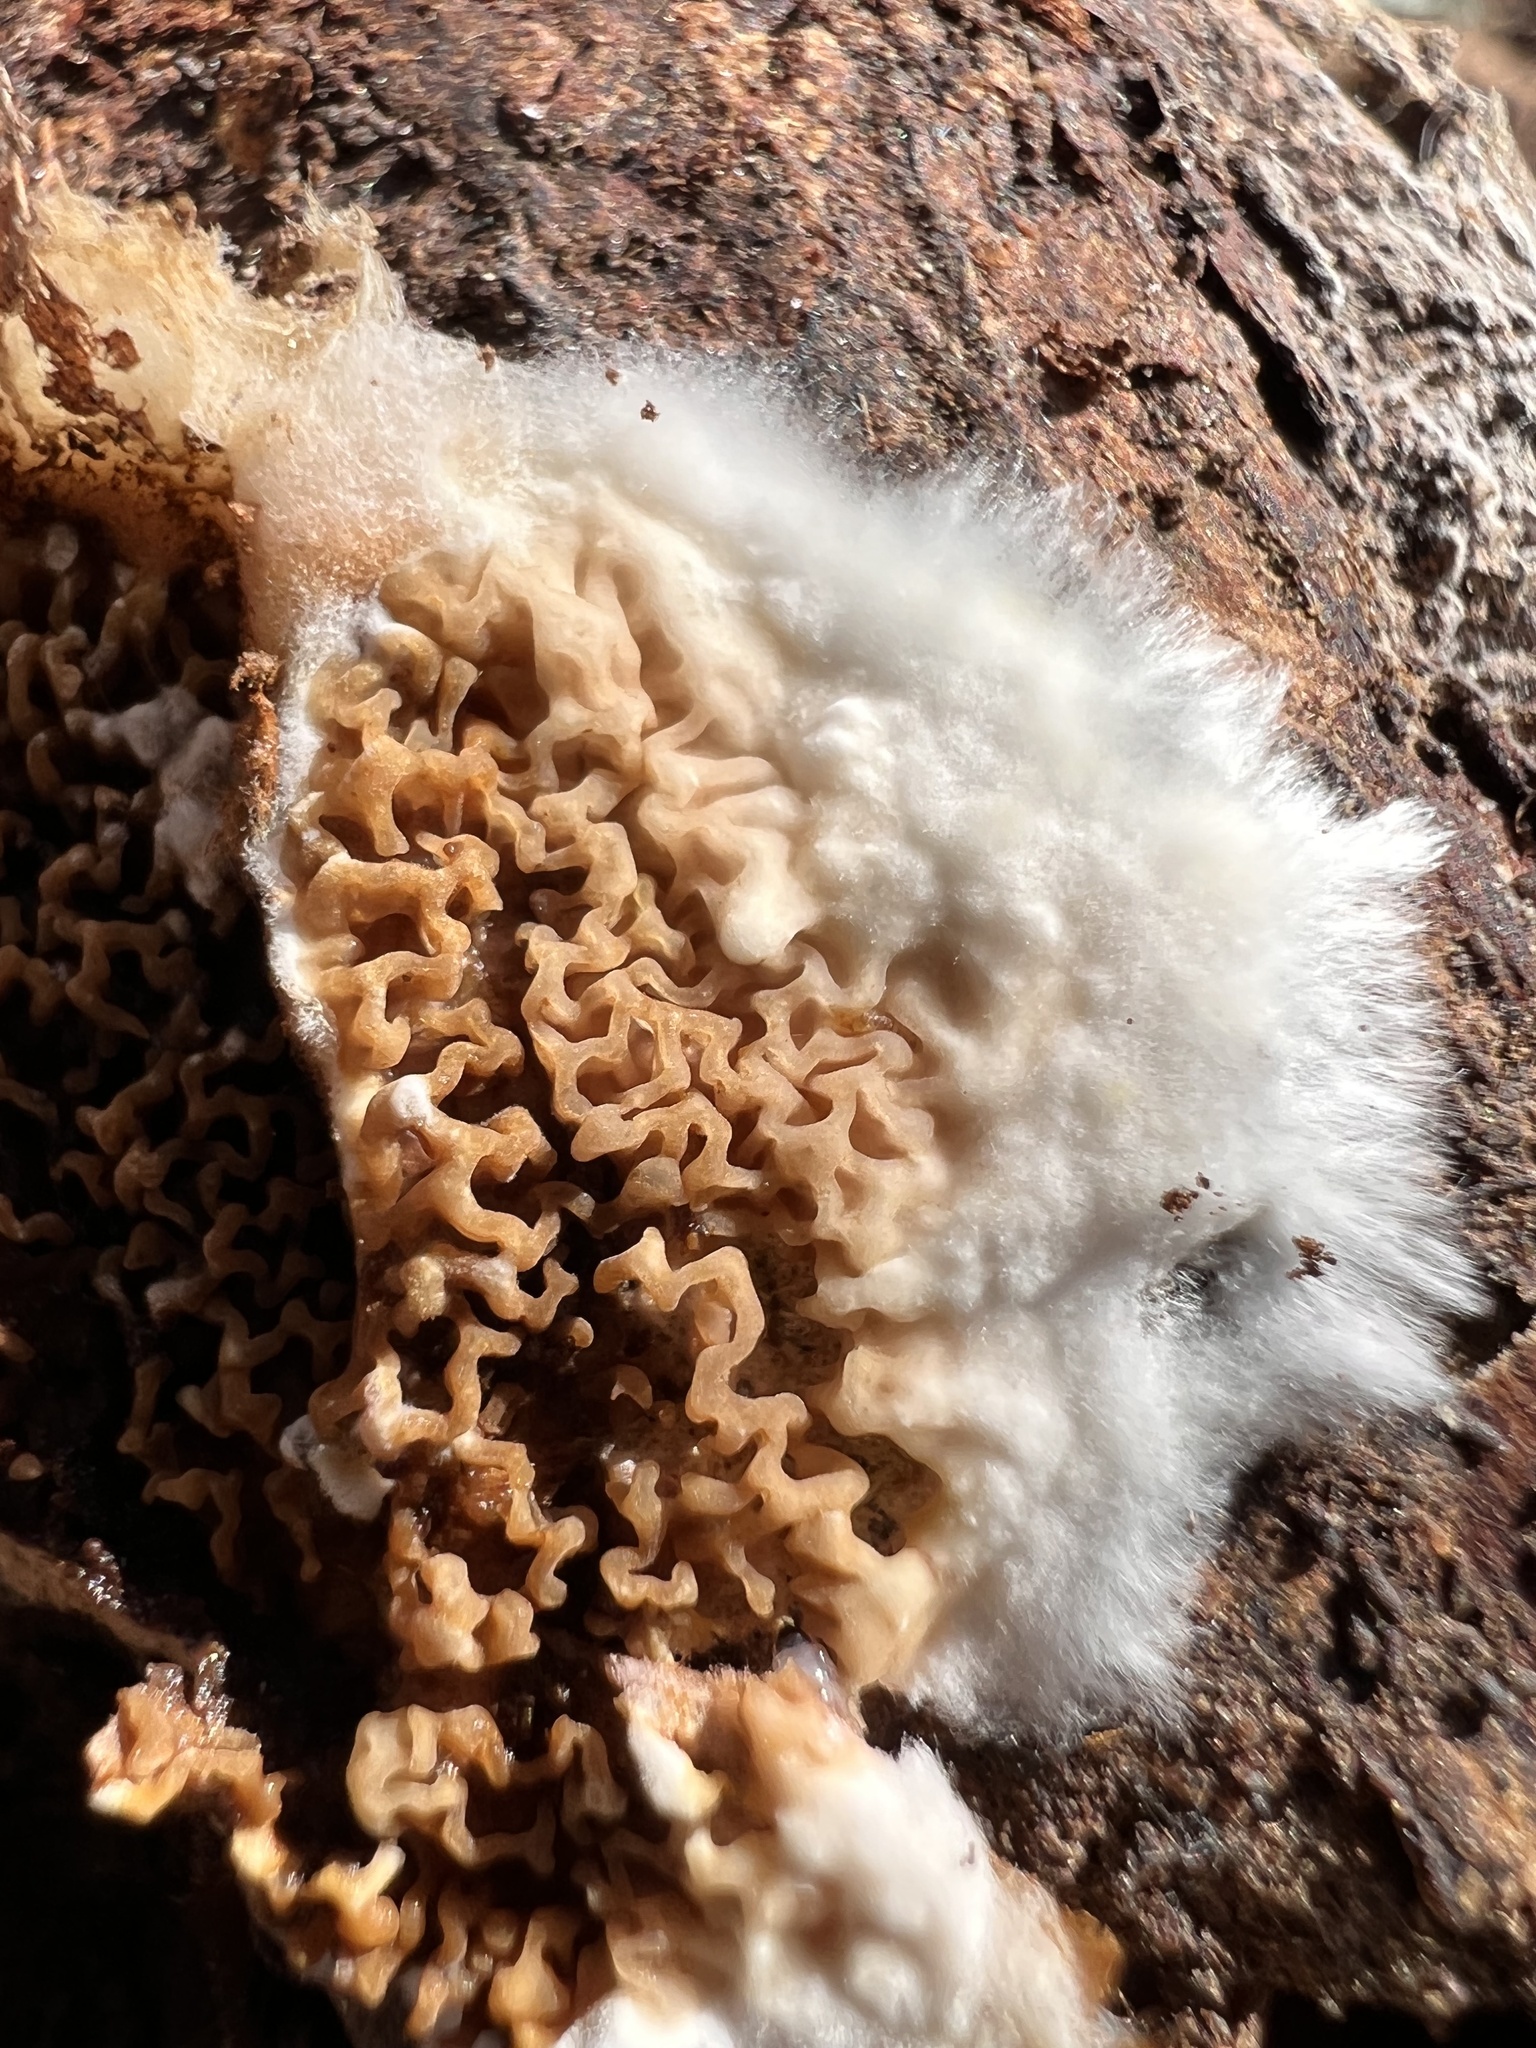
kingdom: Fungi
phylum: Basidiomycota
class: Agaricomycetes
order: Boletales
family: Serpulaceae
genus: Serpula
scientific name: Serpula himantioides
